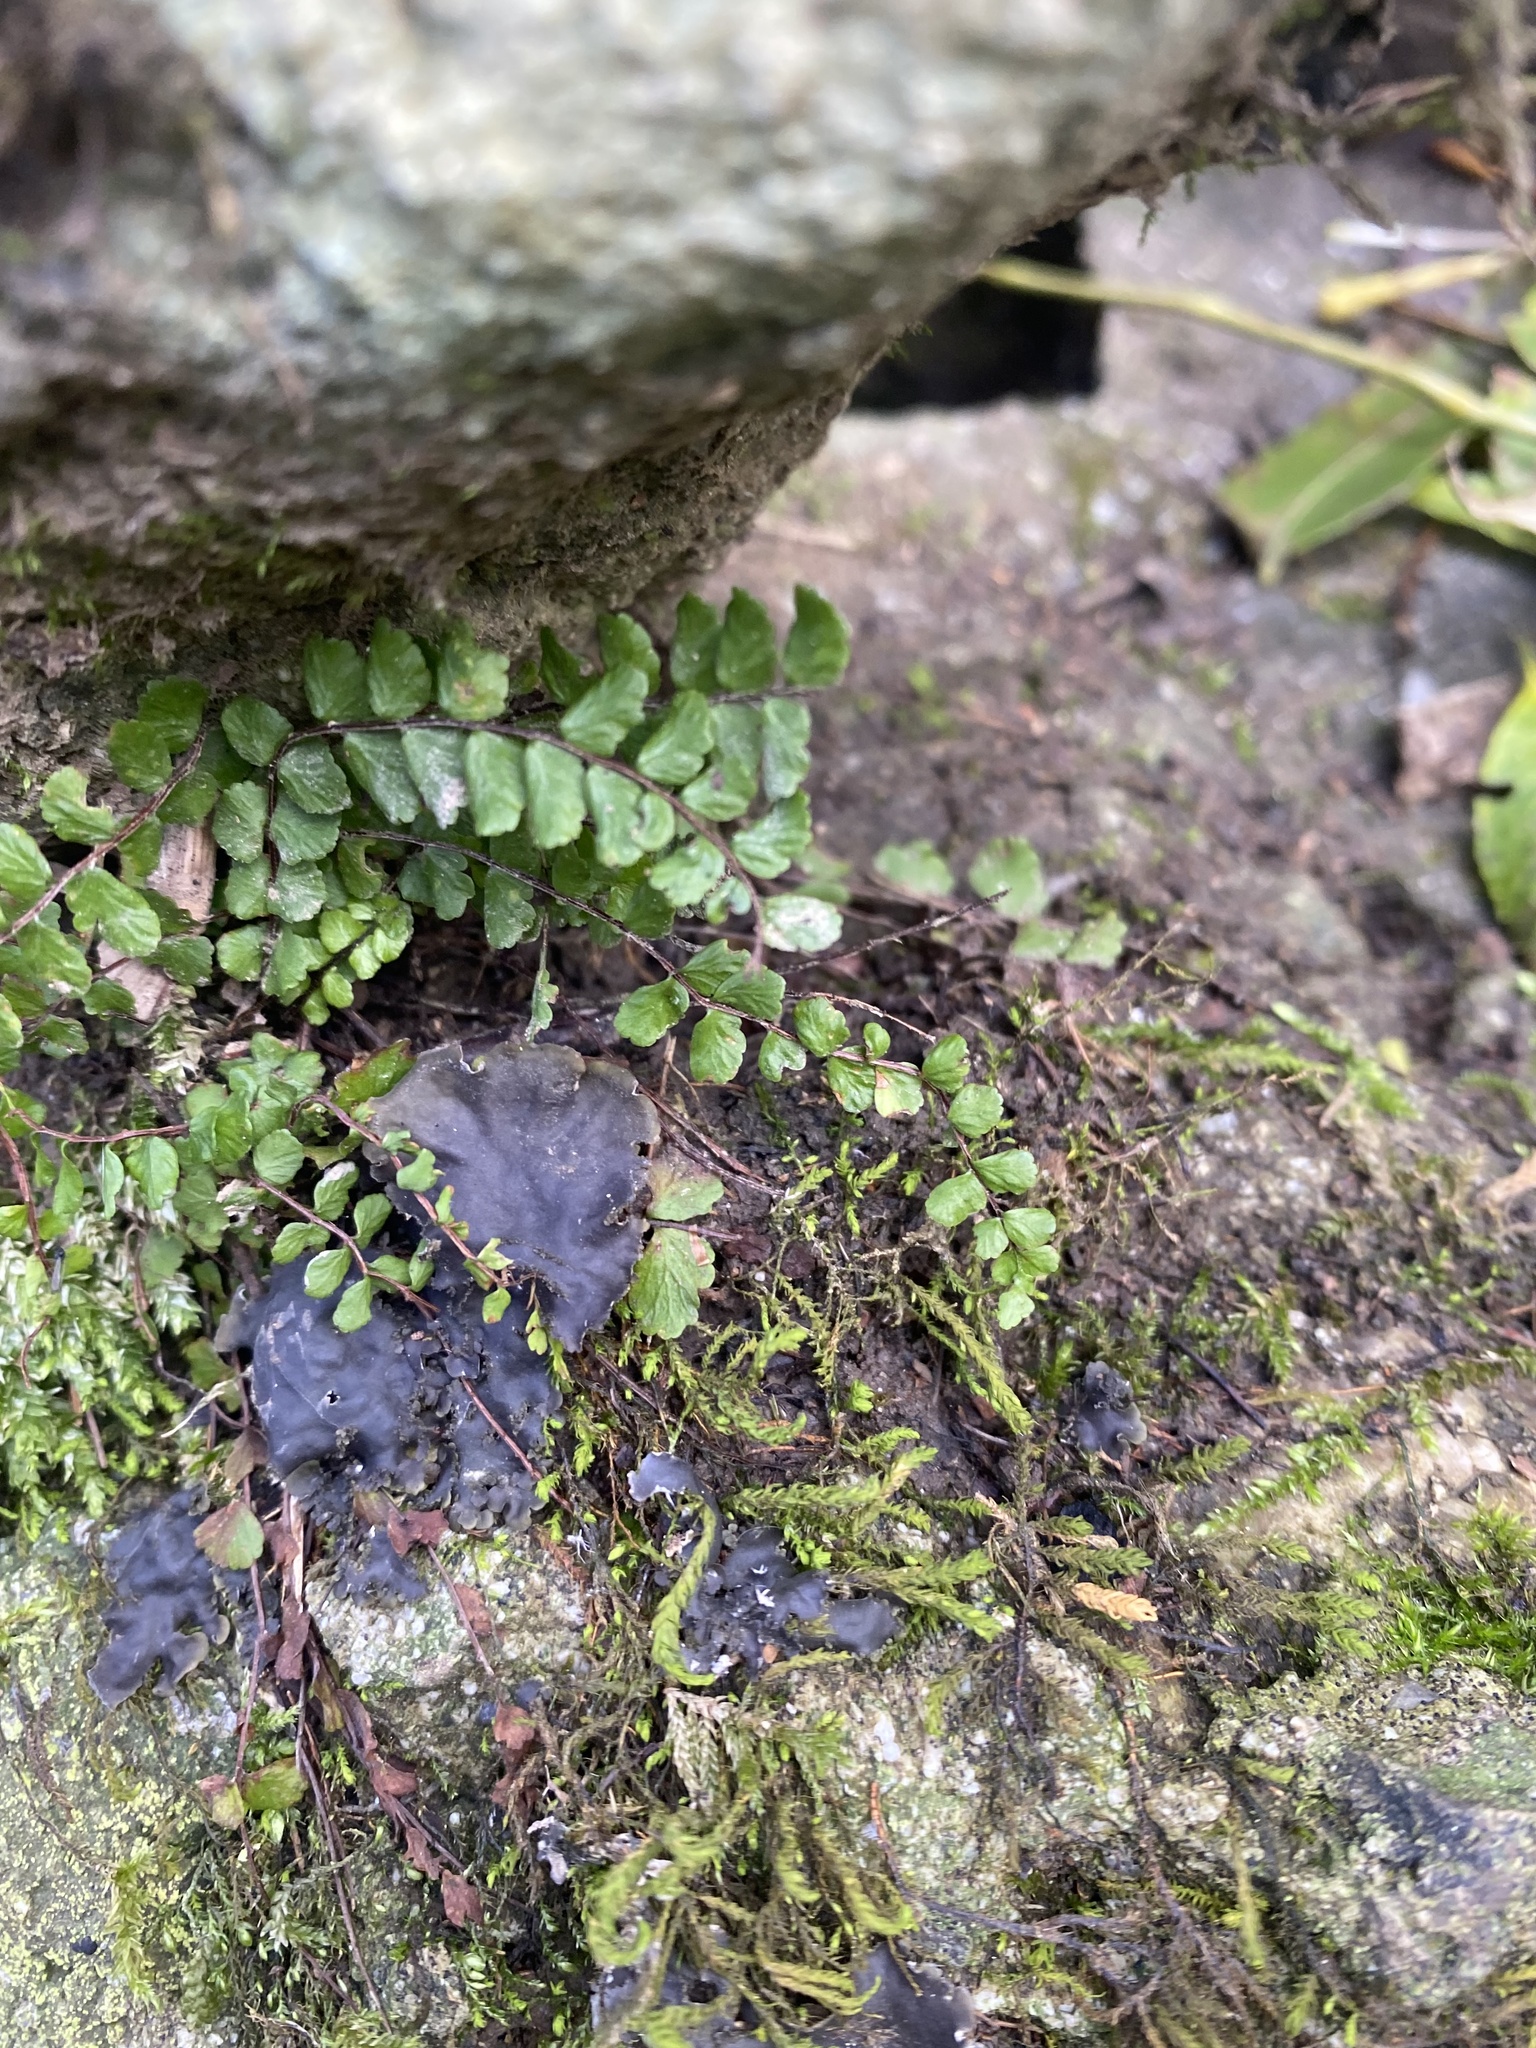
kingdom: Plantae
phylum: Tracheophyta
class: Polypodiopsida
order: Polypodiales
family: Aspleniaceae
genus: Asplenium
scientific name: Asplenium trichomanes
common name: Maidenhair spleenwort
